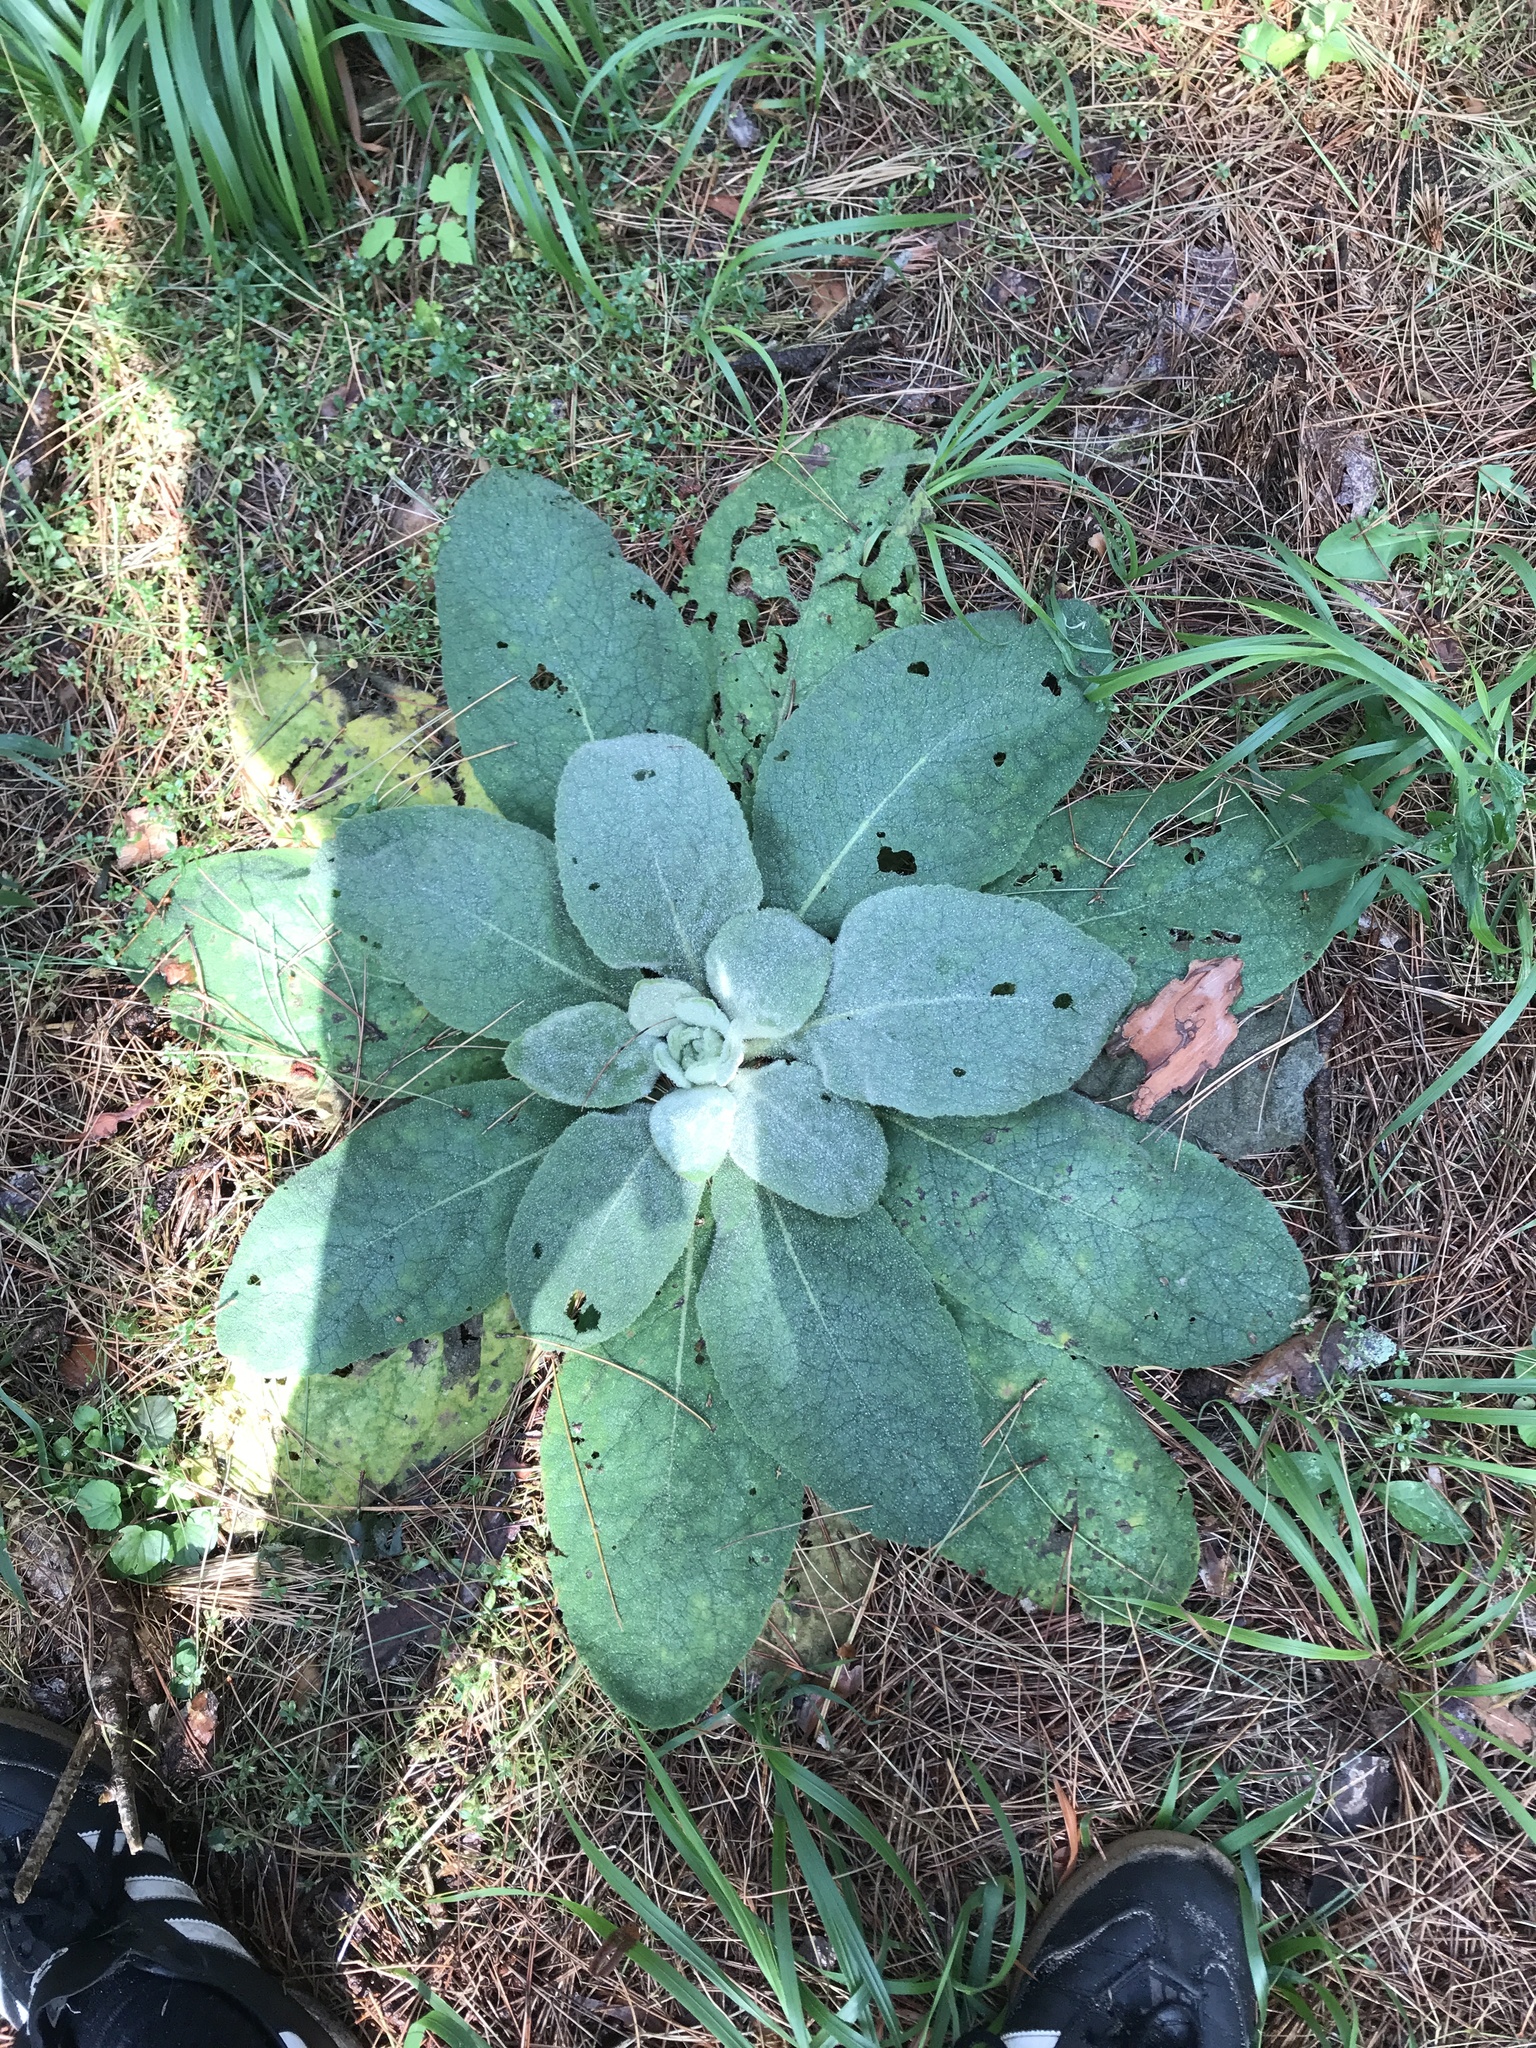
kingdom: Plantae
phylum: Tracheophyta
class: Magnoliopsida
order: Lamiales
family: Scrophulariaceae
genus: Verbascum
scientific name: Verbascum thapsus
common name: Common mullein
